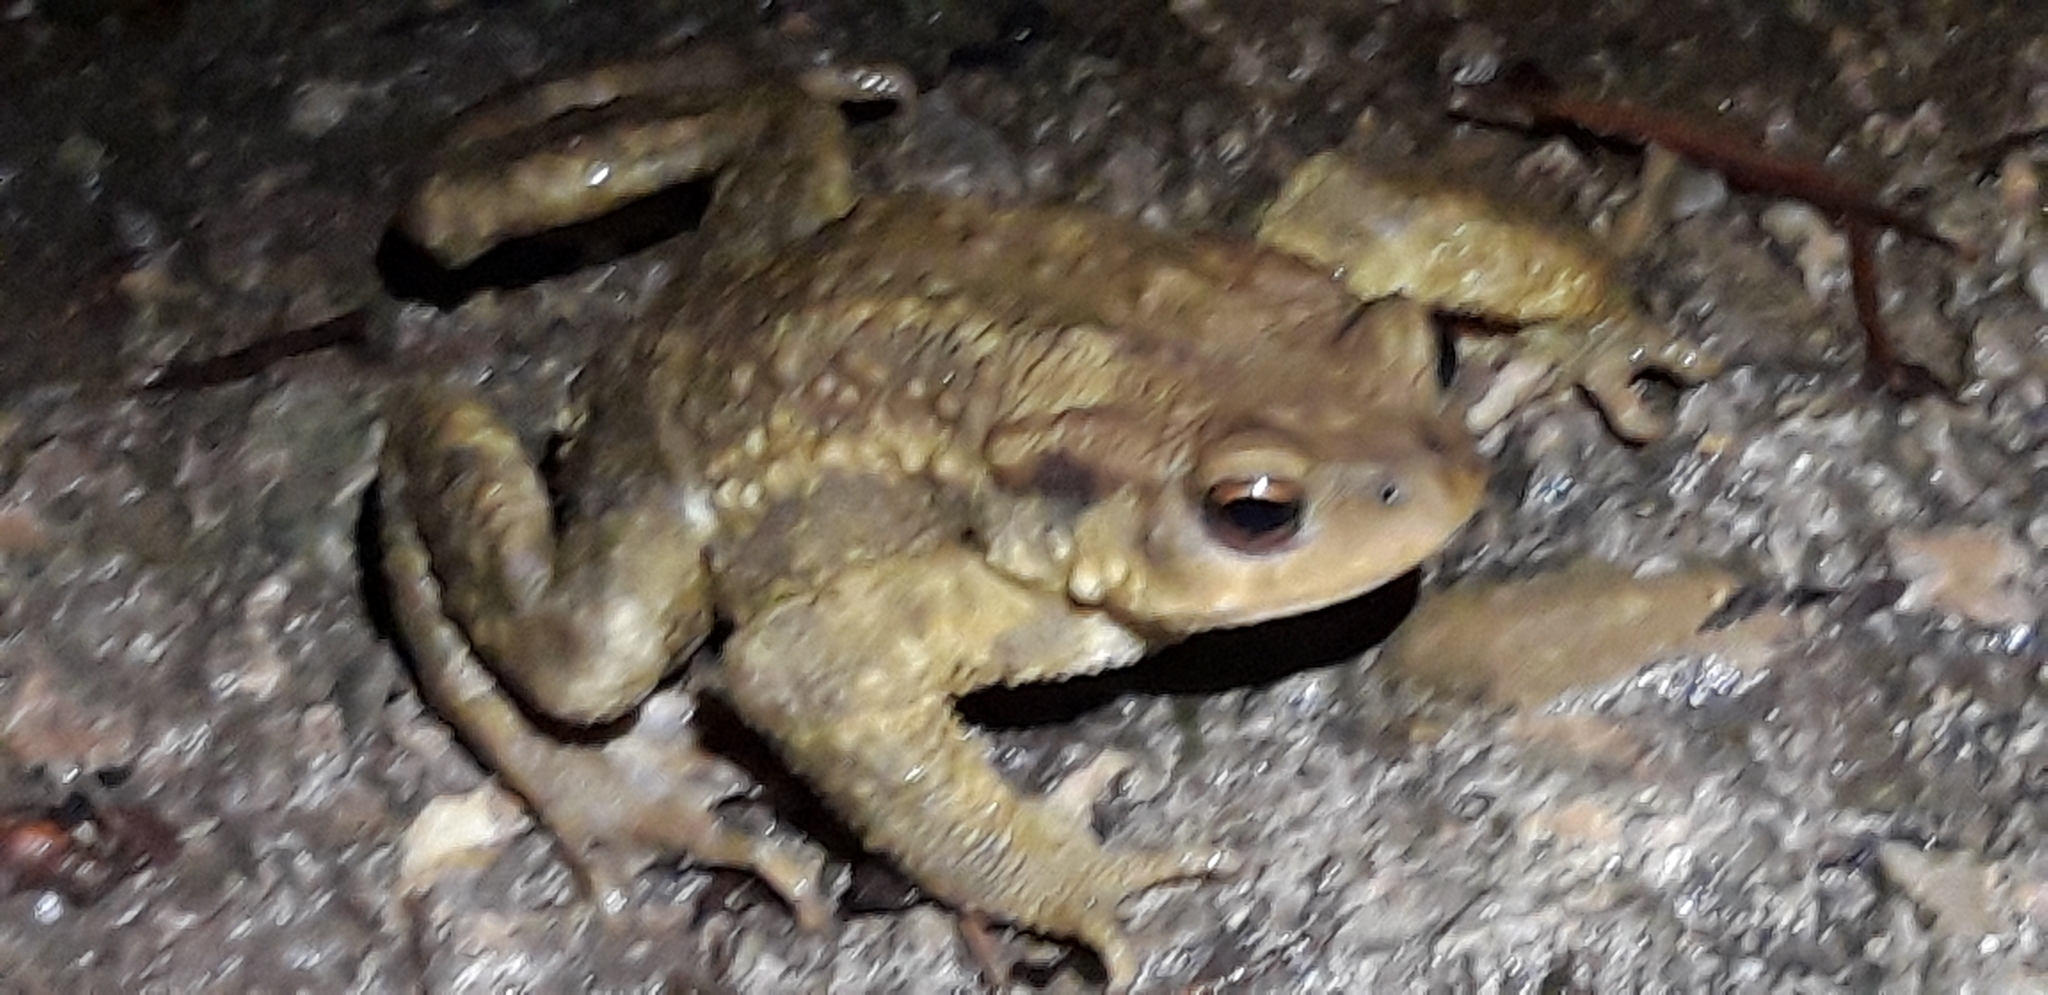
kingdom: Animalia
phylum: Chordata
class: Amphibia
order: Anura
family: Bufonidae
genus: Bufo
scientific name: Bufo spinosus
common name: Western common toad
